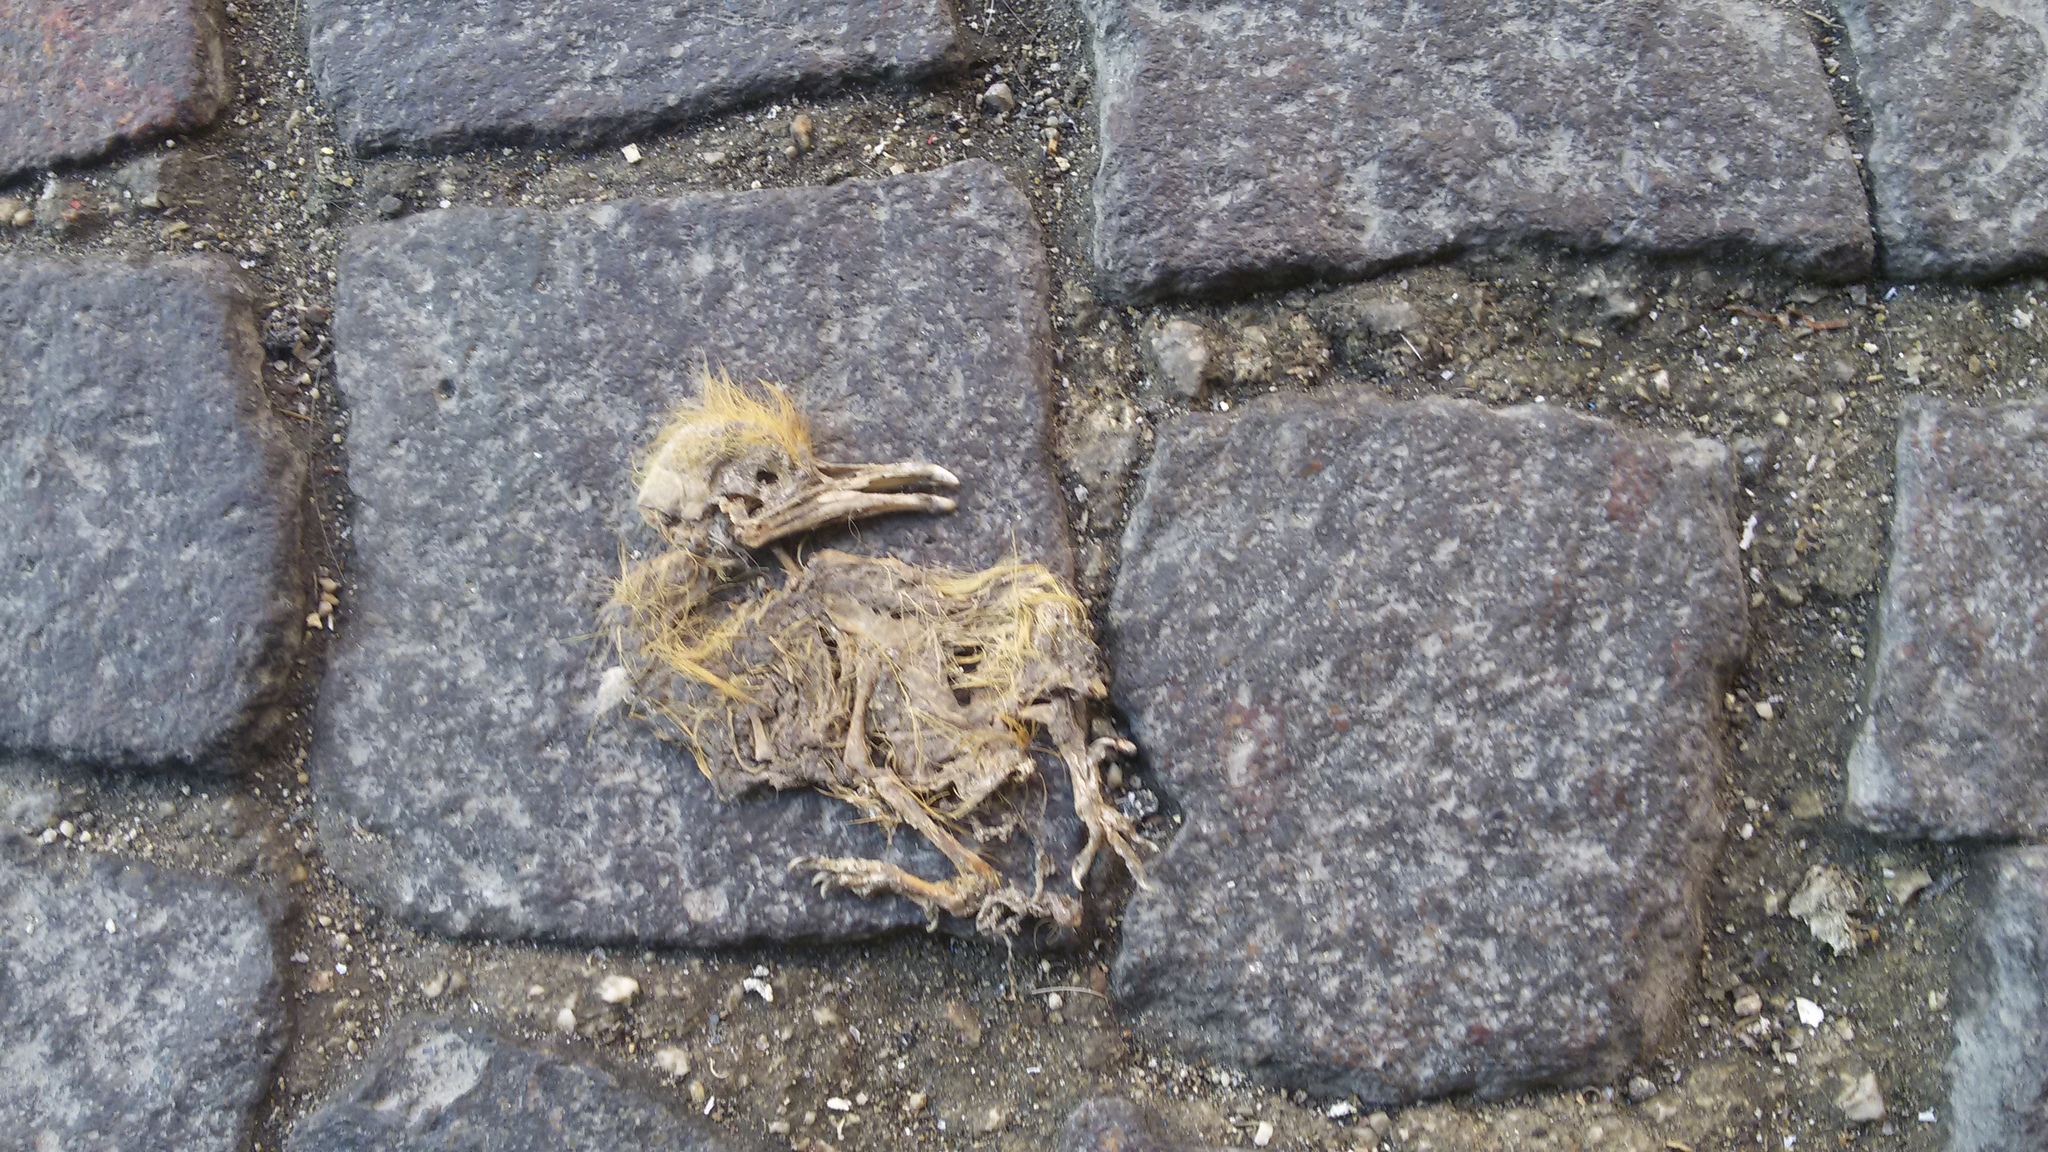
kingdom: Animalia
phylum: Chordata
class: Aves
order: Columbiformes
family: Columbidae
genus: Columba
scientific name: Columba livia
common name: Rock pigeon
